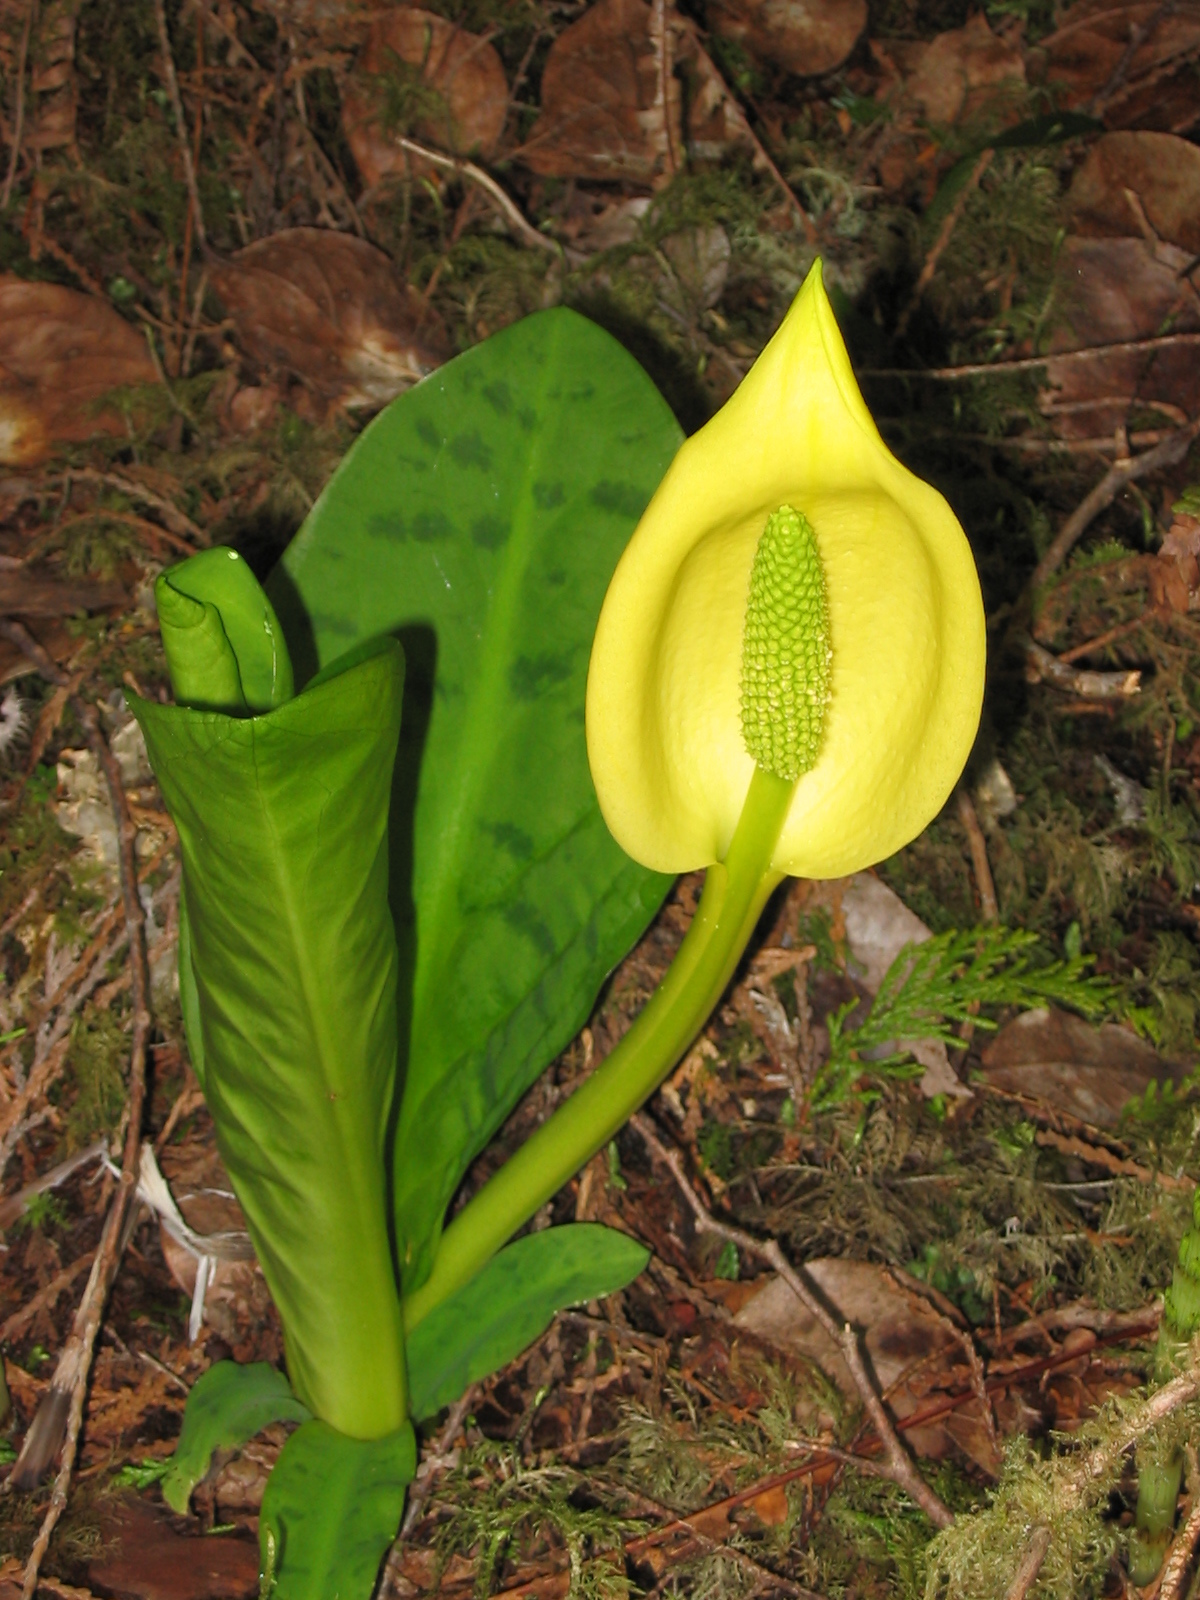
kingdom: Plantae
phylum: Tracheophyta
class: Liliopsida
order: Alismatales
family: Araceae
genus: Lysichiton
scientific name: Lysichiton americanus
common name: American skunk cabbage
